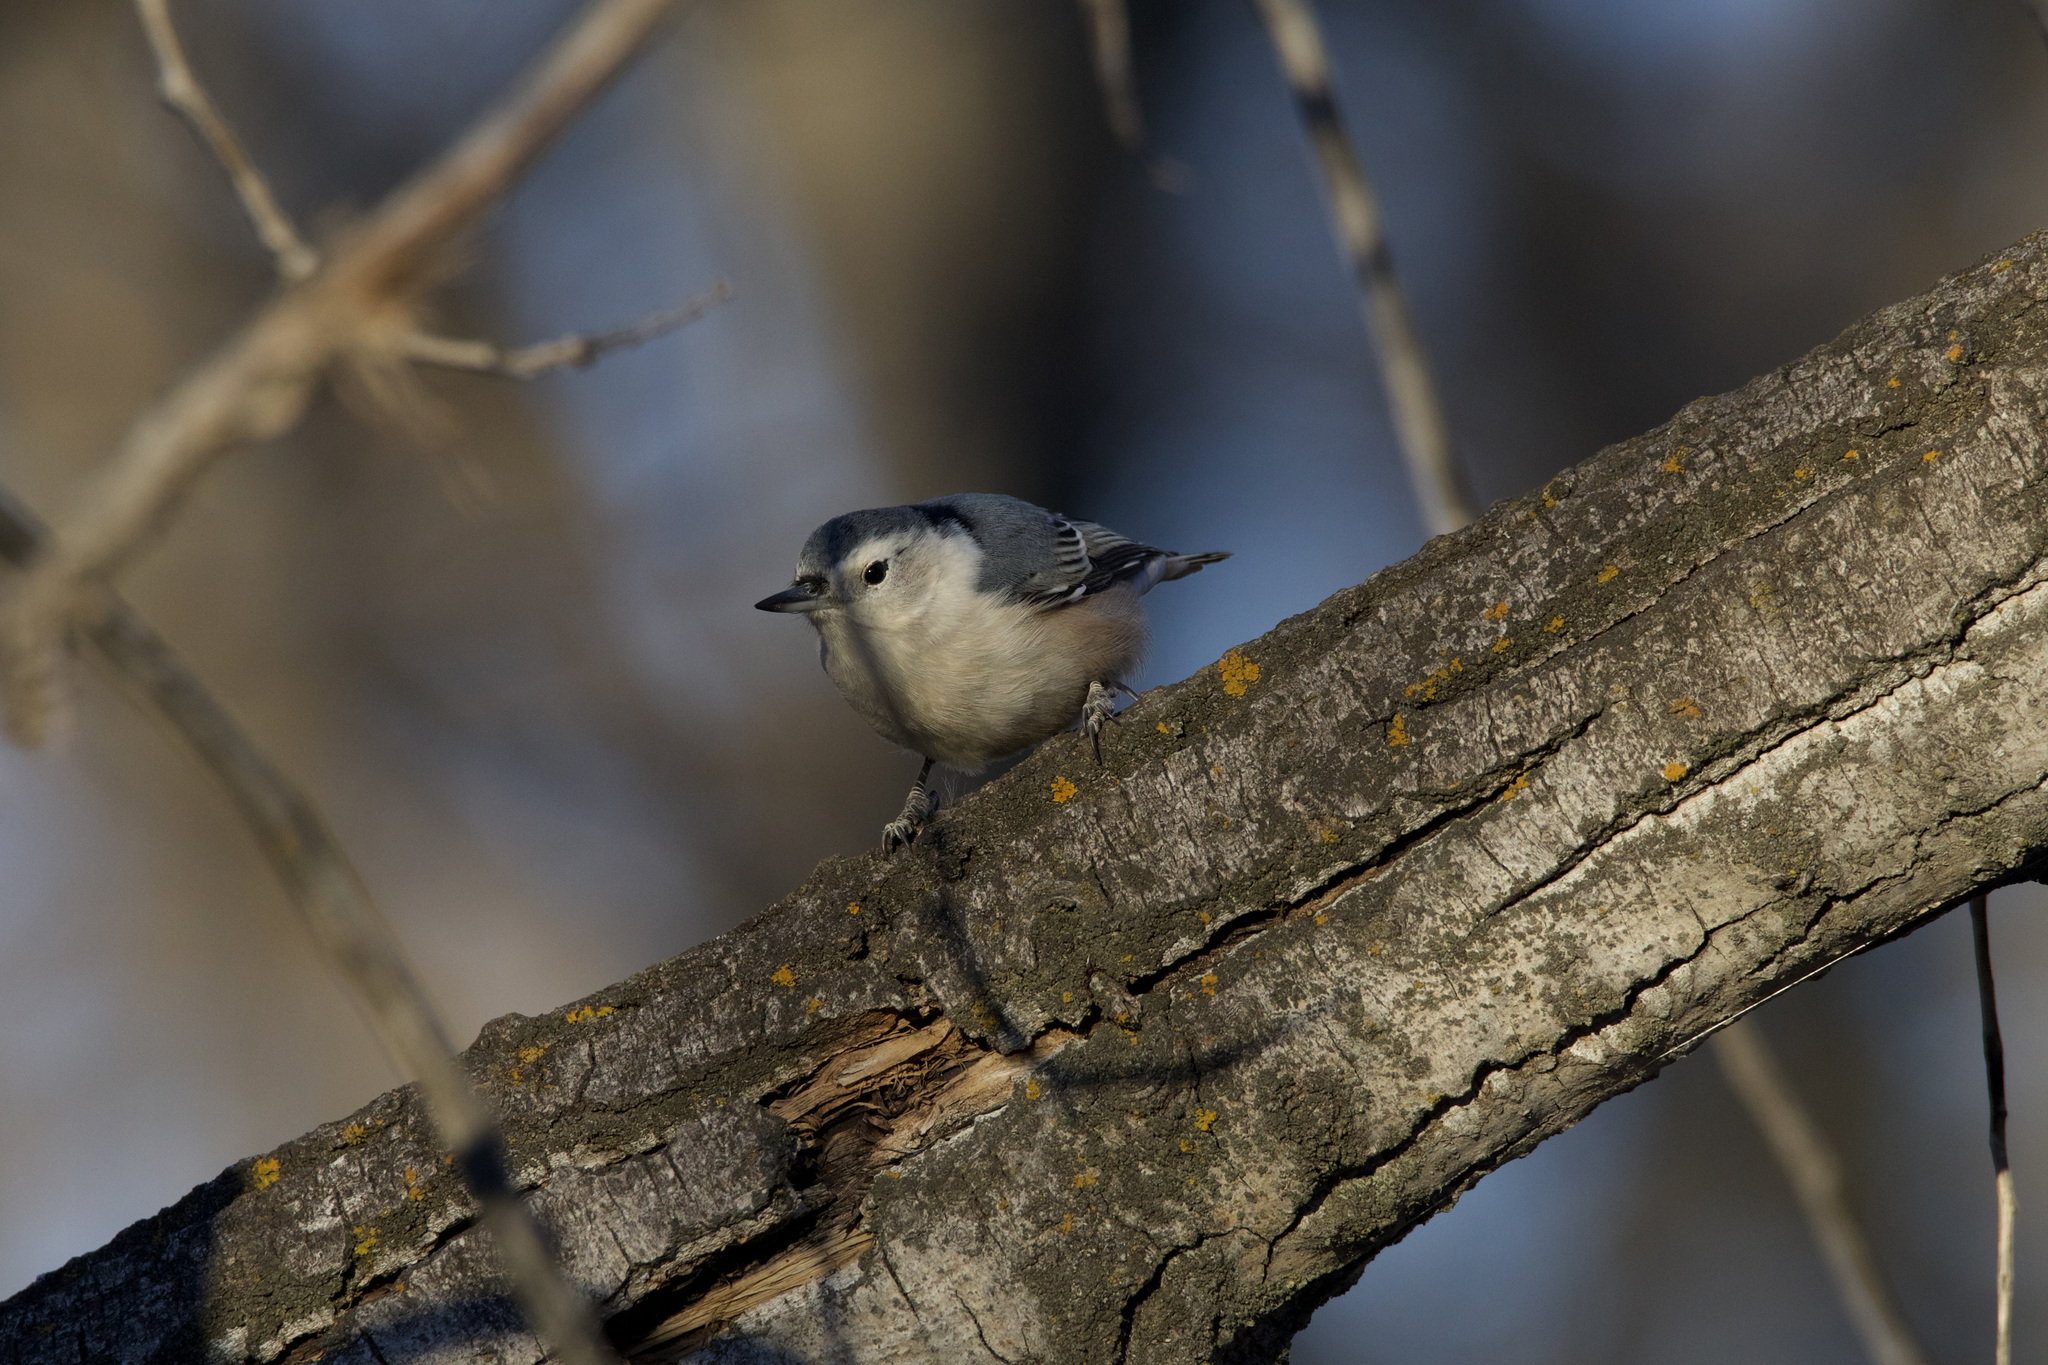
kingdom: Animalia
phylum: Chordata
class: Aves
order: Passeriformes
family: Sittidae
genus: Sitta
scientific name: Sitta carolinensis
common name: White-breasted nuthatch
